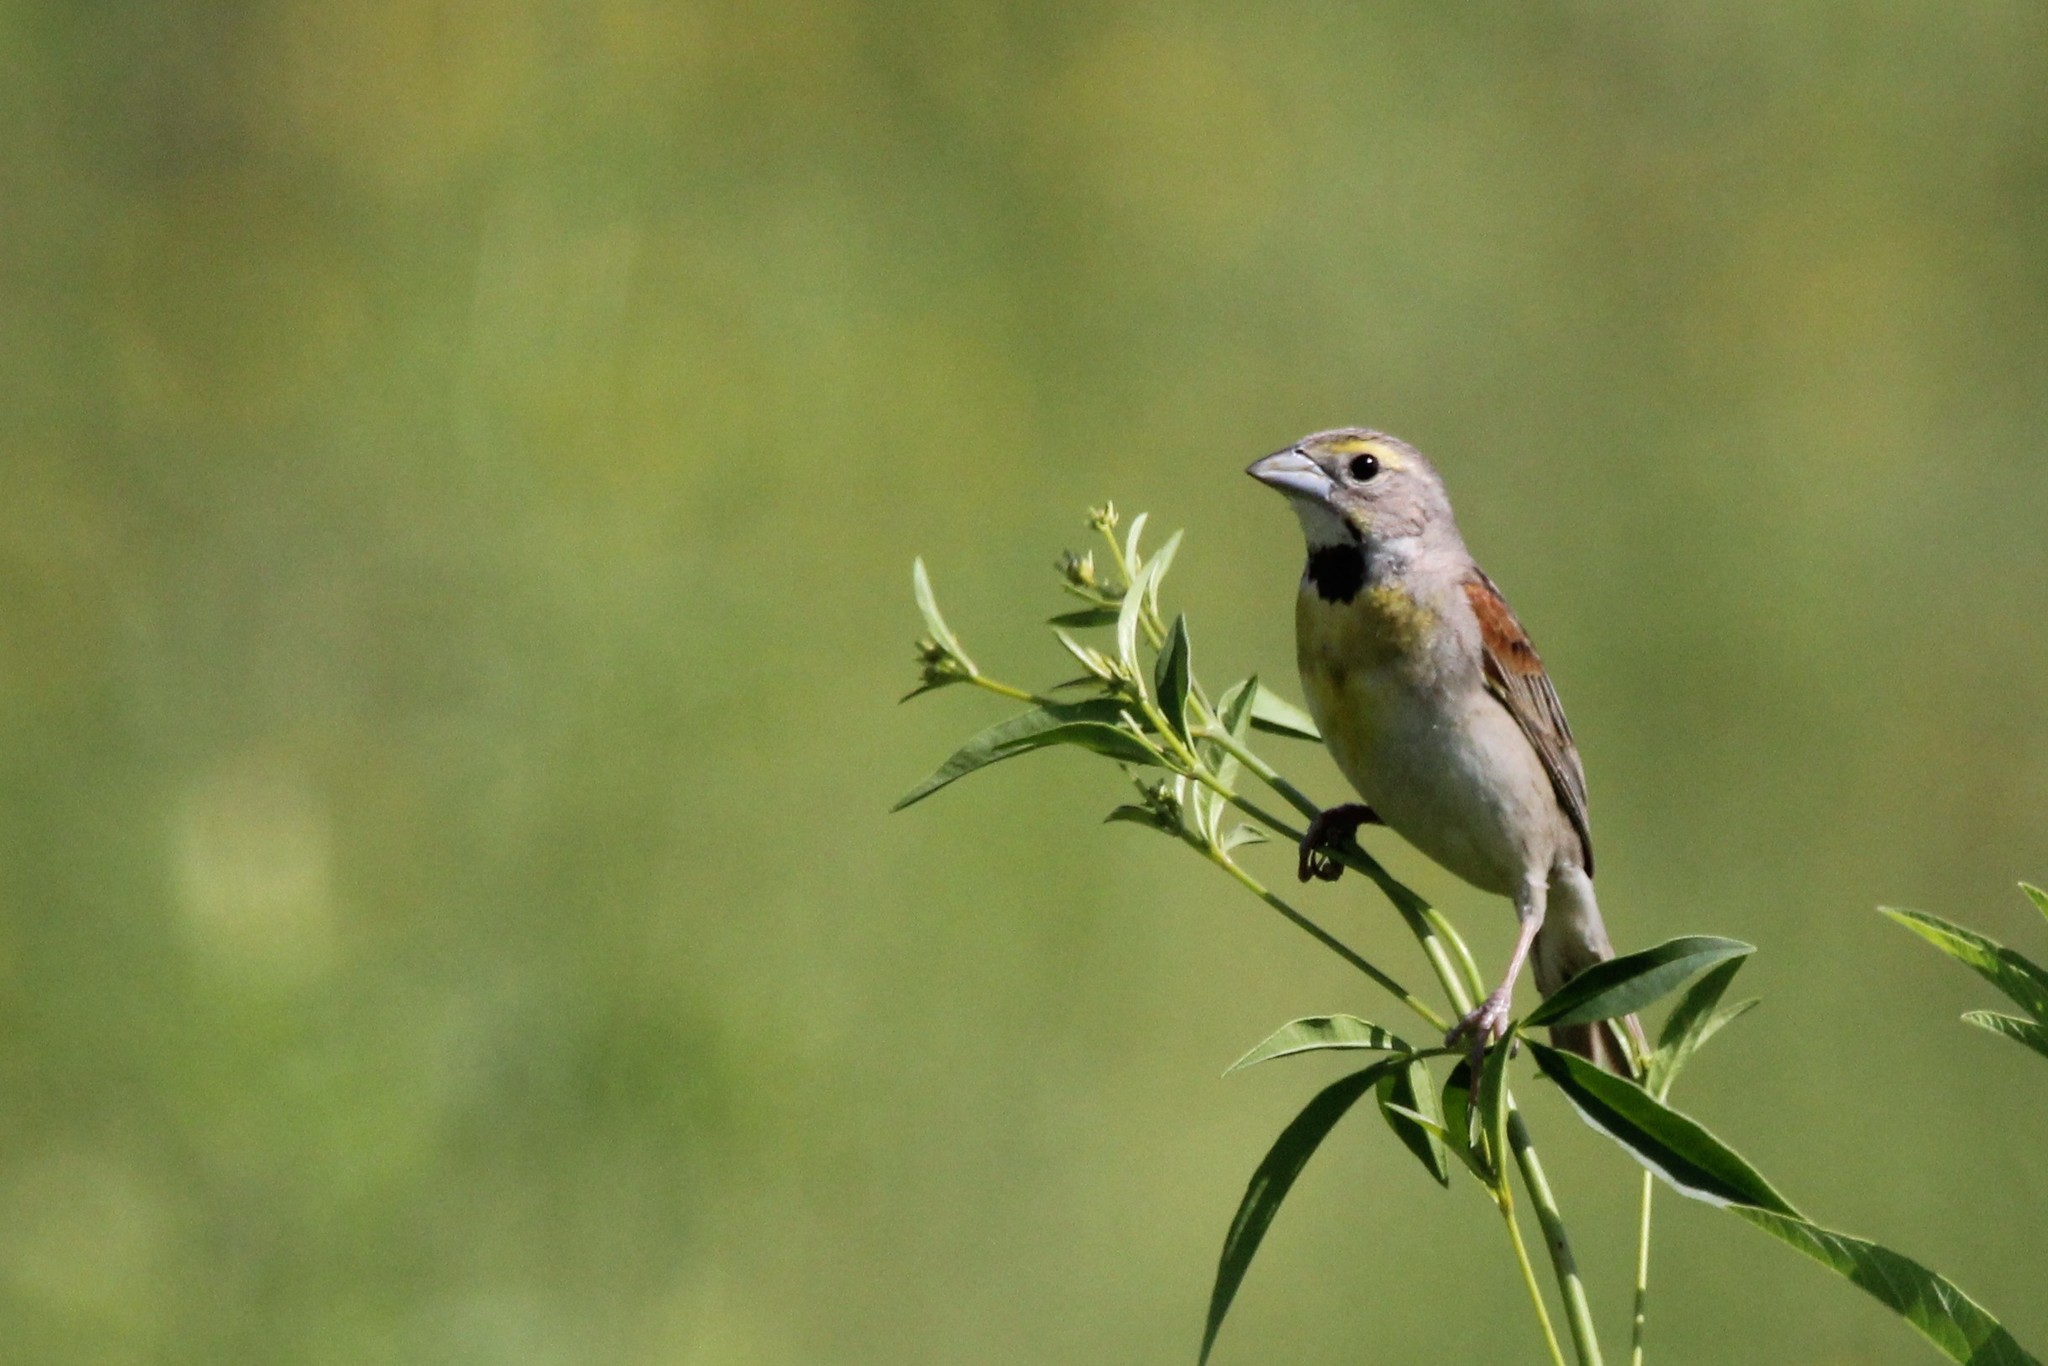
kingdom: Animalia
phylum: Chordata
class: Aves
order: Passeriformes
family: Cardinalidae
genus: Spiza
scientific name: Spiza americana
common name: Dickcissel
